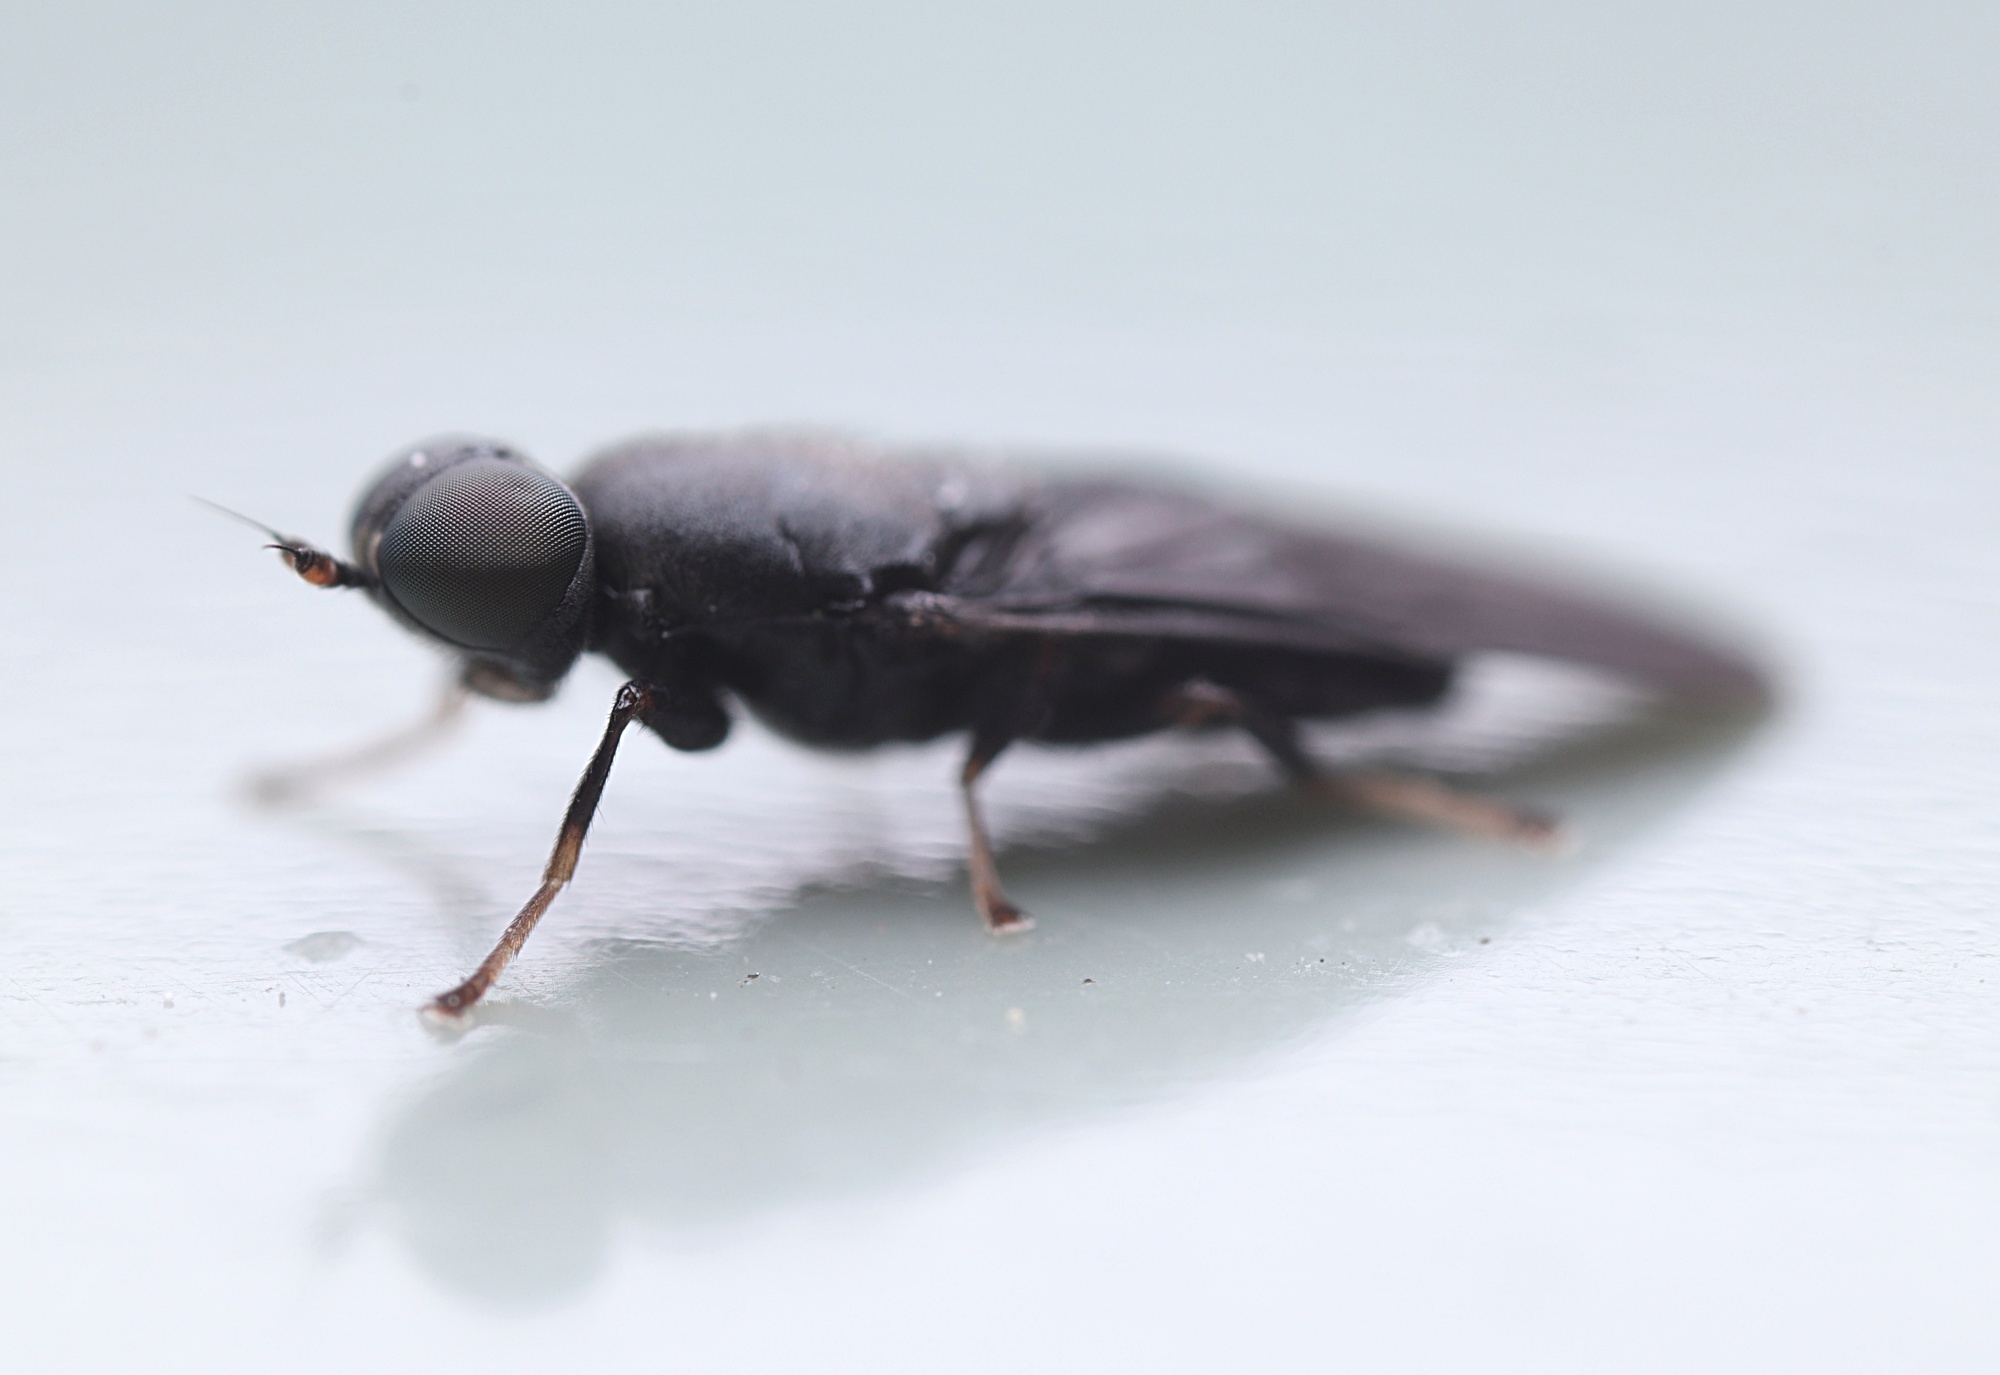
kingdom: Animalia
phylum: Arthropoda
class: Insecta
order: Diptera
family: Stratiomyidae
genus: Dysbiota
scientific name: Dysbiota parvula
